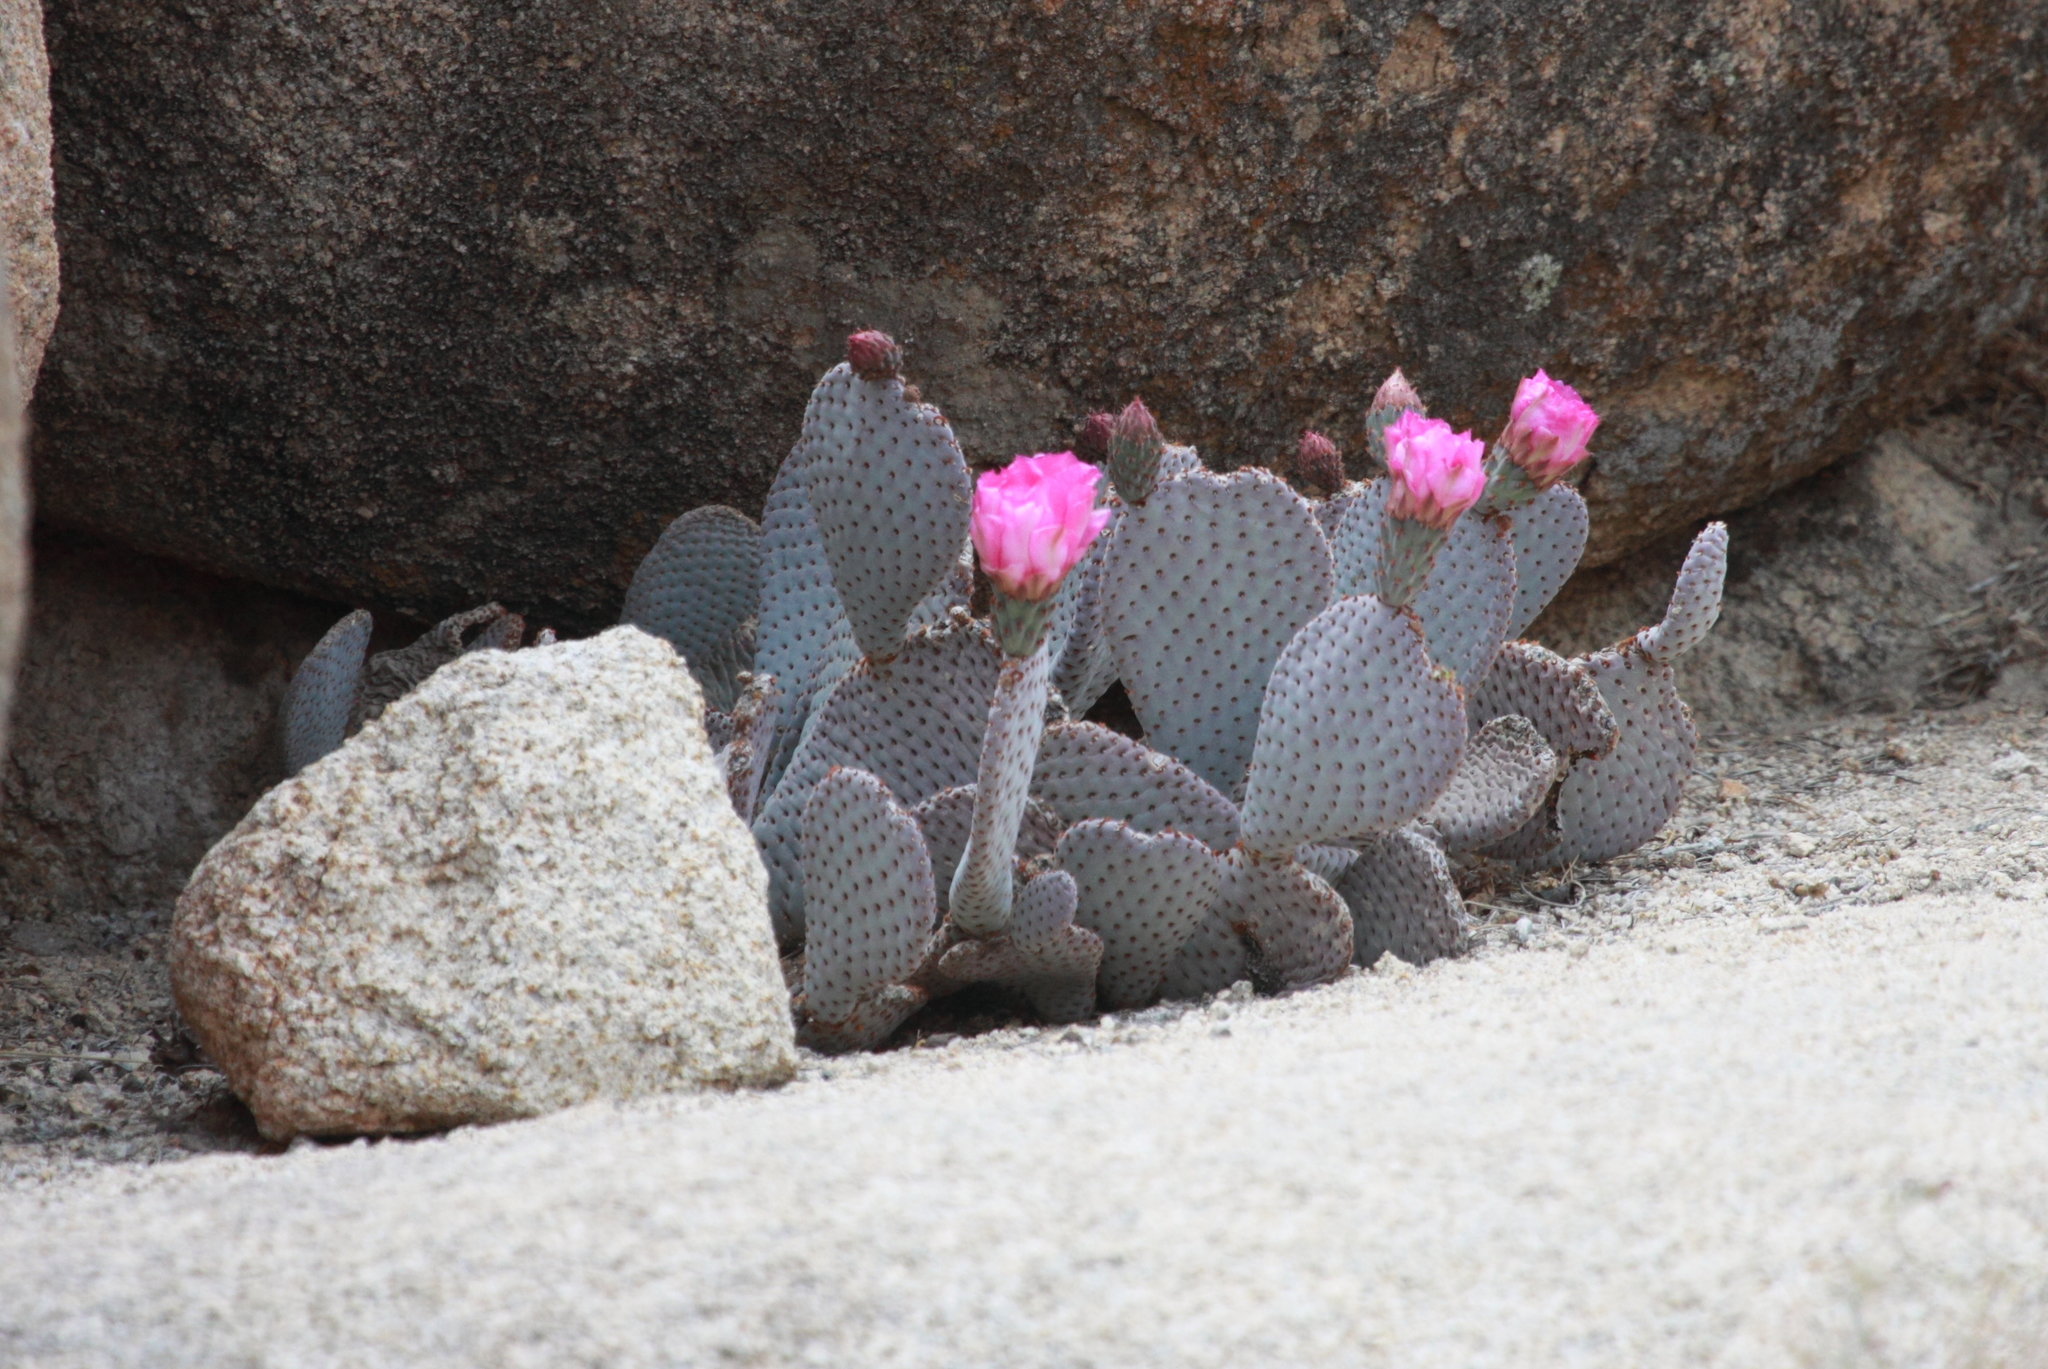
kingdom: Plantae
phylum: Tracheophyta
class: Magnoliopsida
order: Caryophyllales
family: Cactaceae
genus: Opuntia
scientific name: Opuntia basilaris
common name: Beavertail prickly-pear
